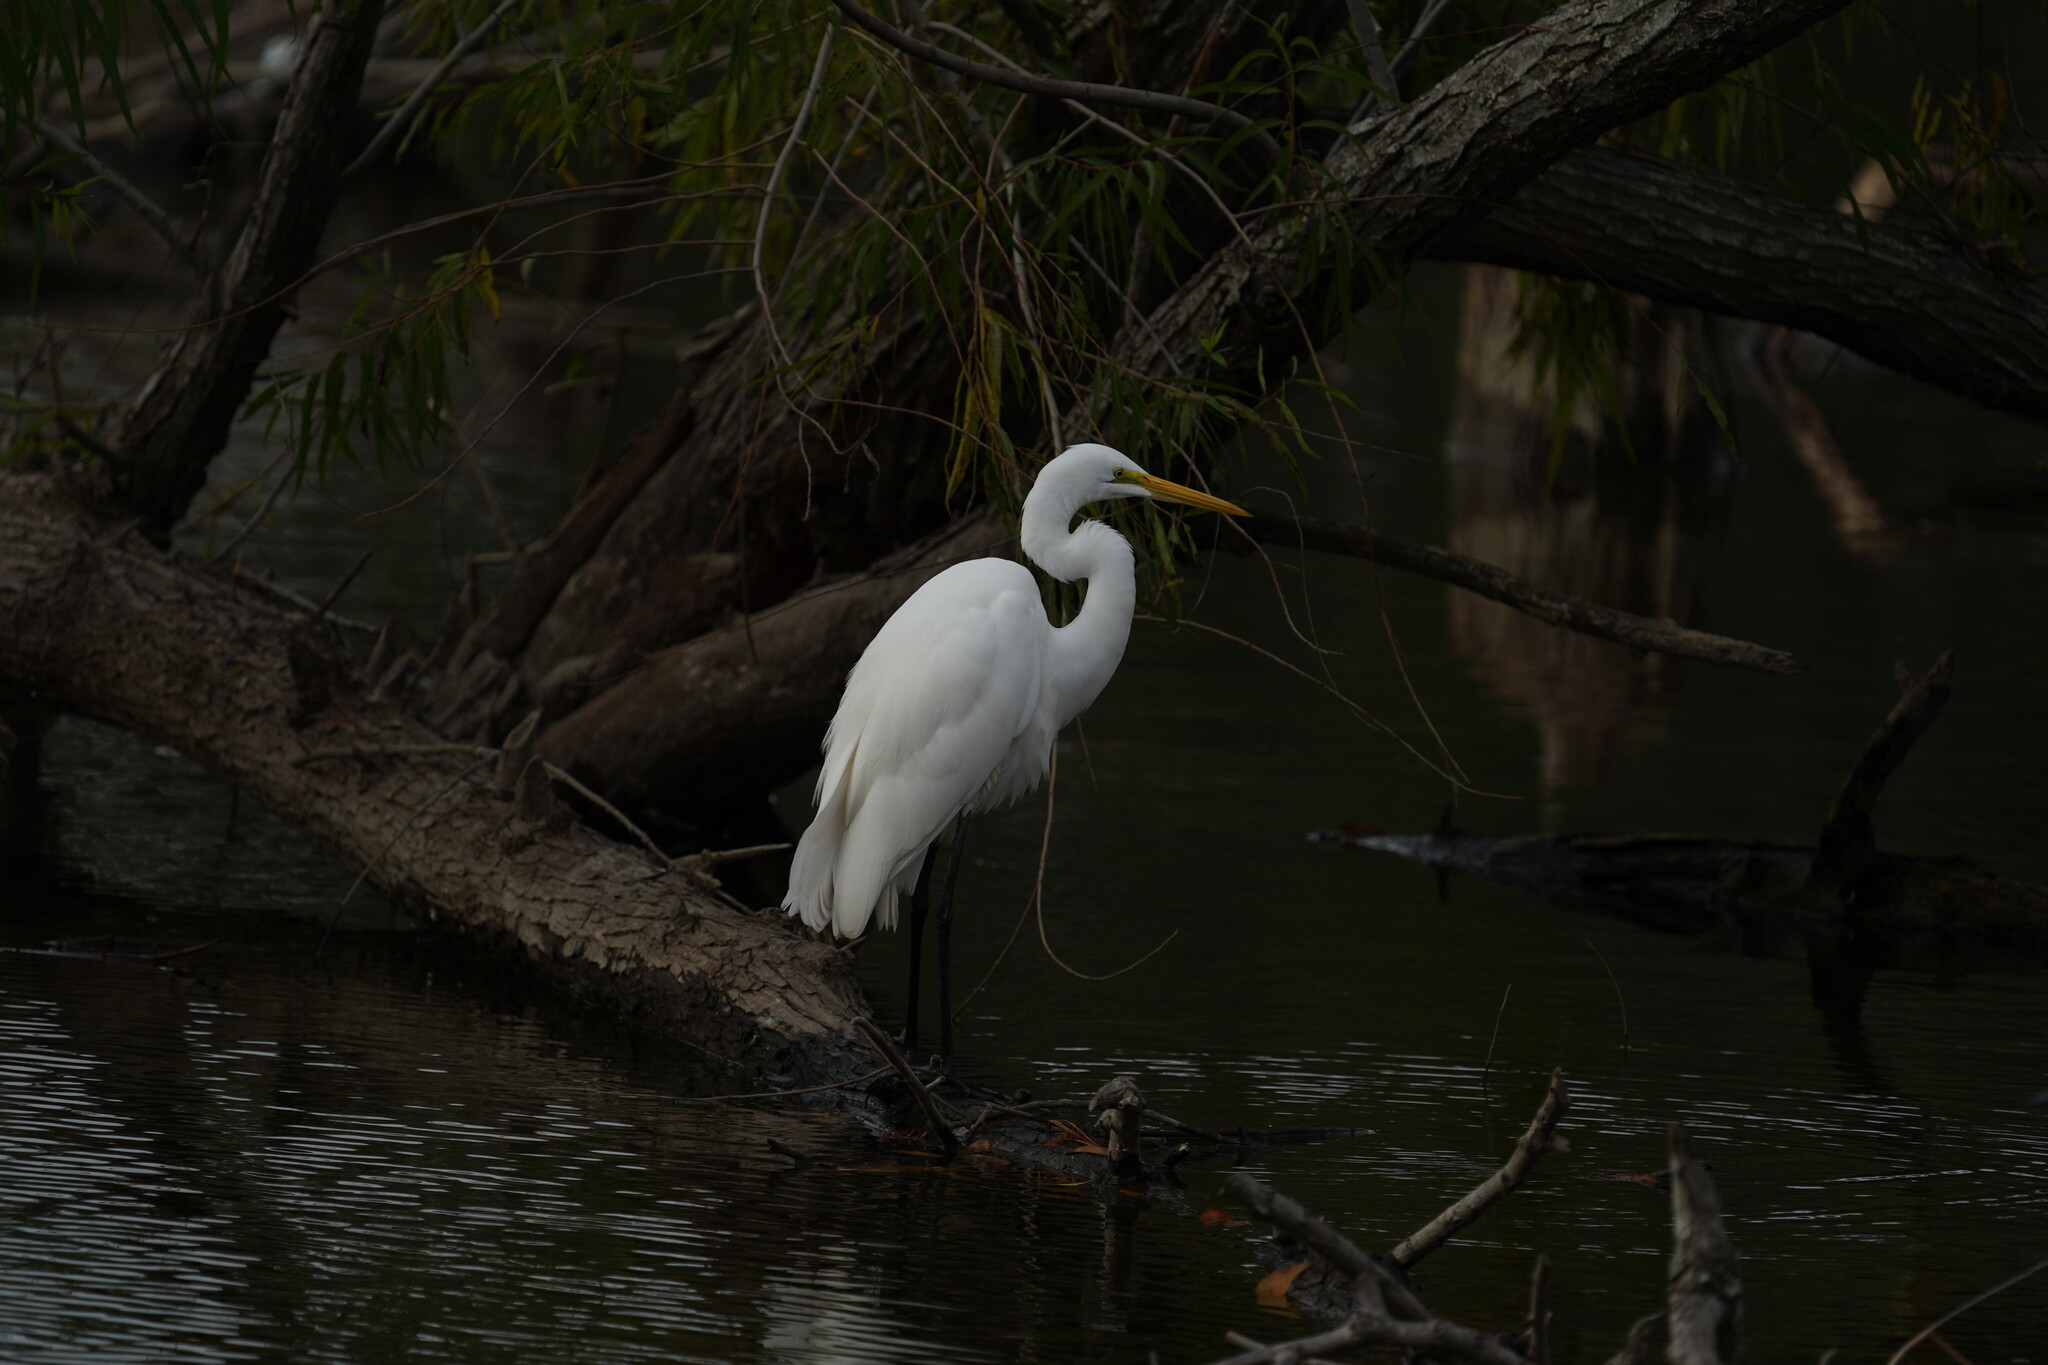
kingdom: Animalia
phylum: Chordata
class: Aves
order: Pelecaniformes
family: Ardeidae
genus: Ardea
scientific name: Ardea alba
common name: Great egret
